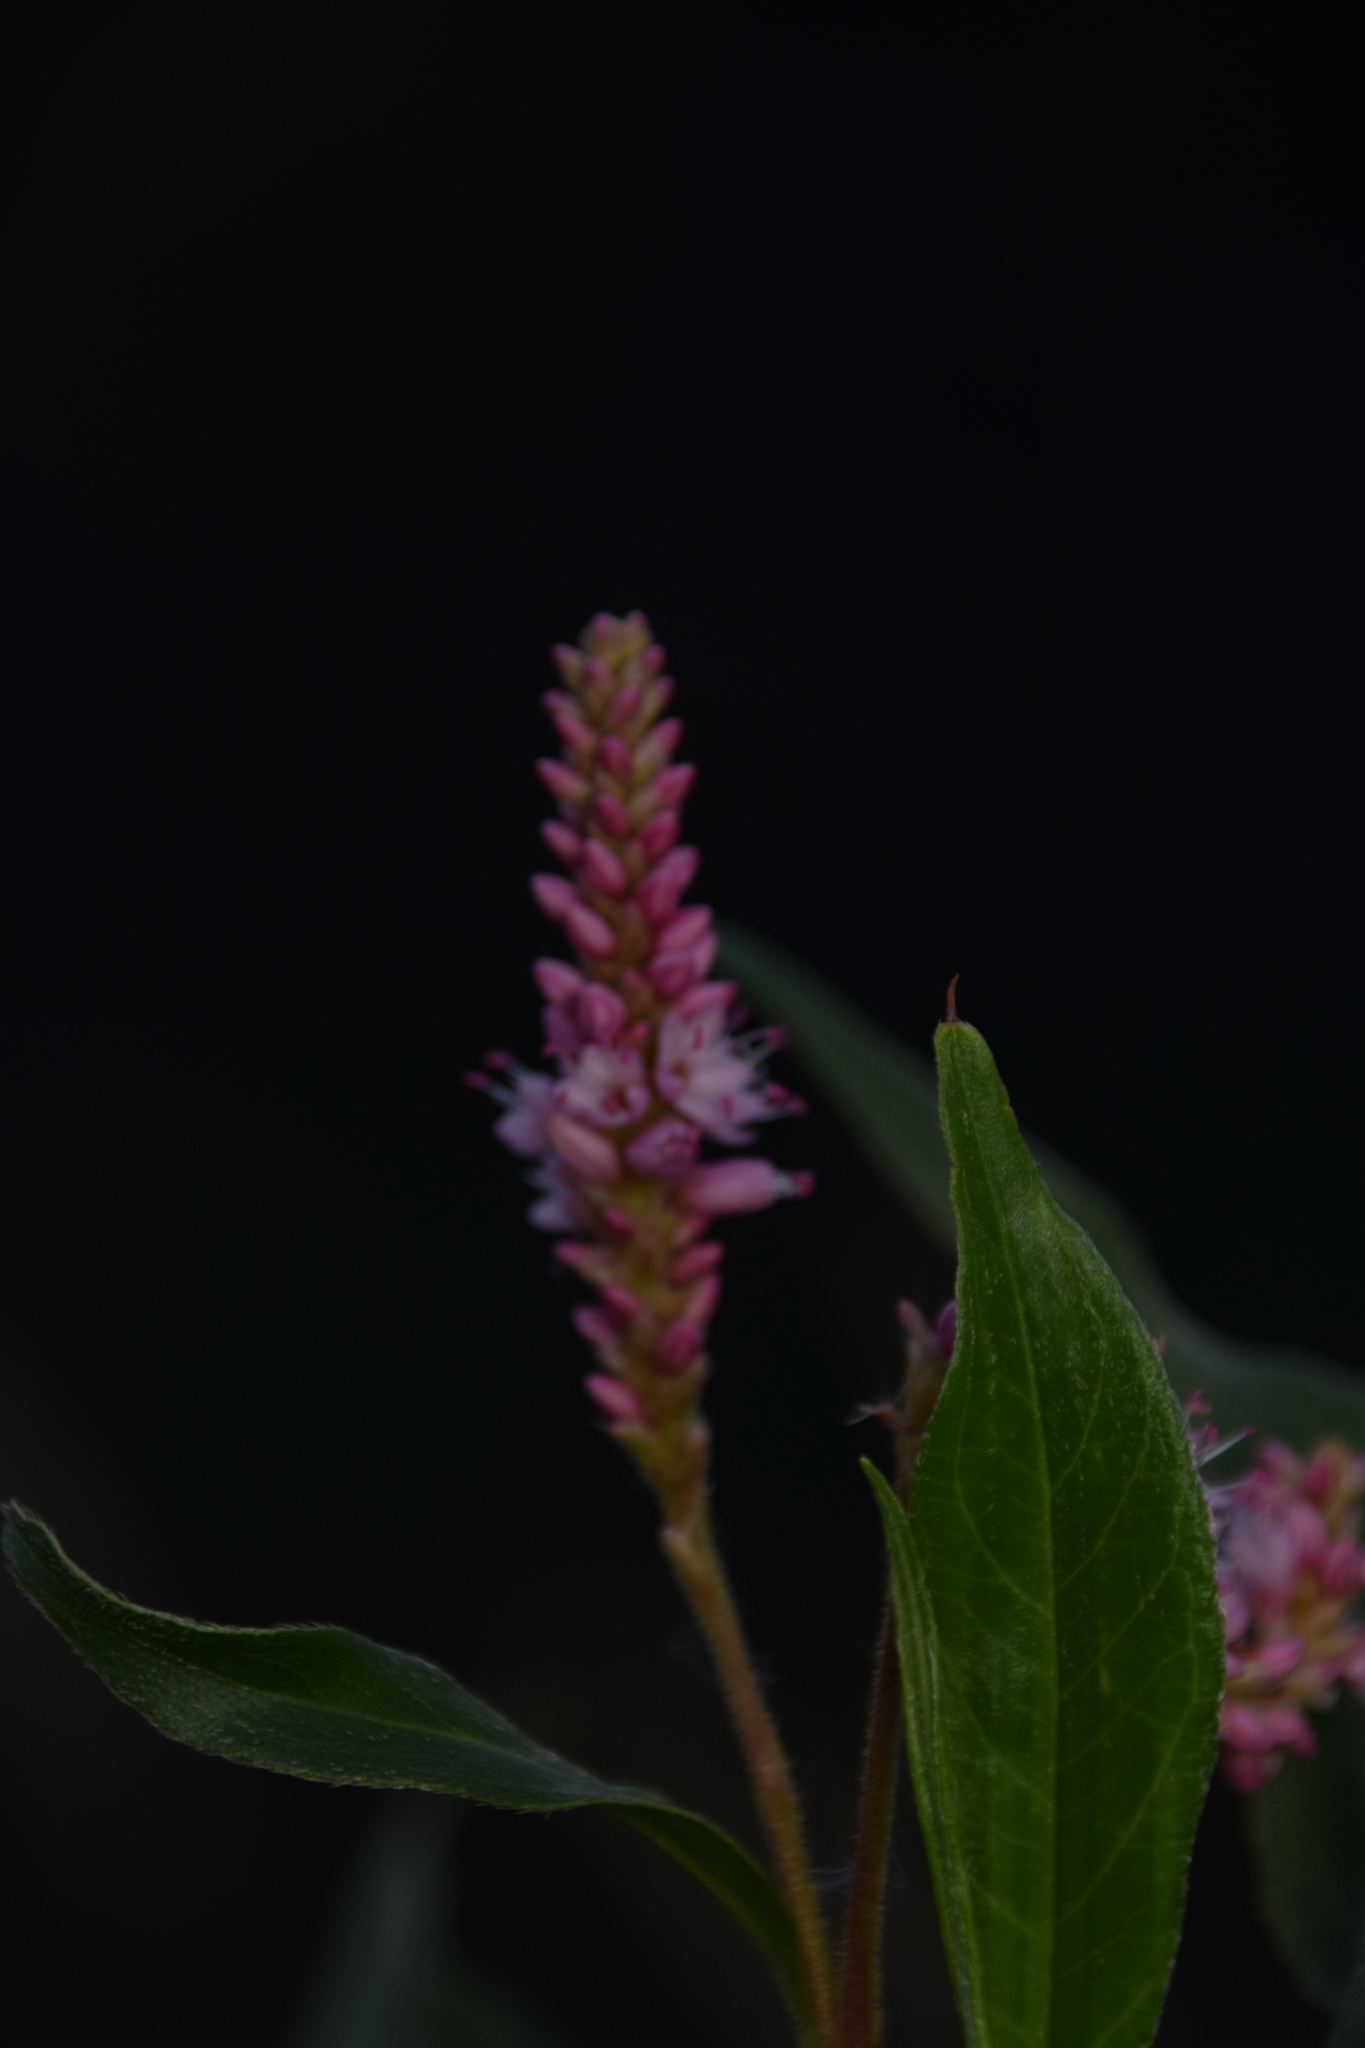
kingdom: Plantae
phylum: Tracheophyta
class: Magnoliopsida
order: Caryophyllales
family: Polygonaceae
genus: Persicaria
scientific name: Persicaria amphibia
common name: Amphibious bistort
